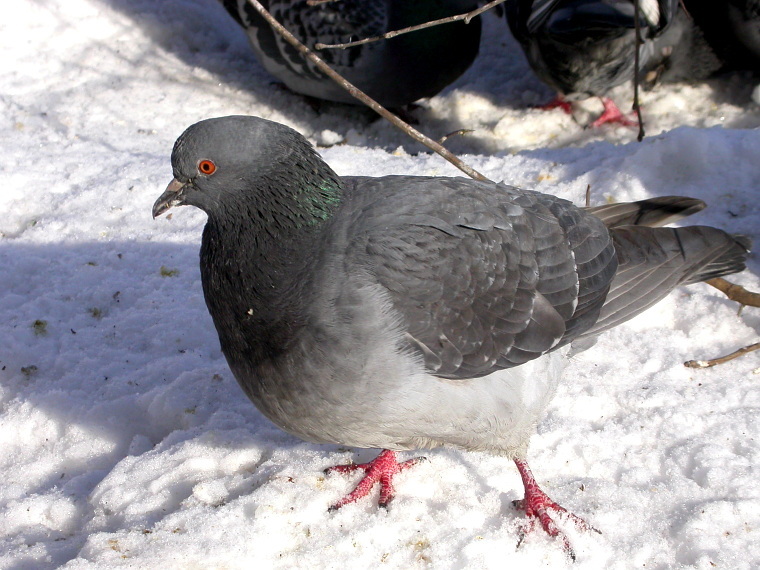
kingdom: Animalia
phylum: Chordata
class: Aves
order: Columbiformes
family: Columbidae
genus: Columba
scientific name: Columba livia
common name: Rock pigeon
